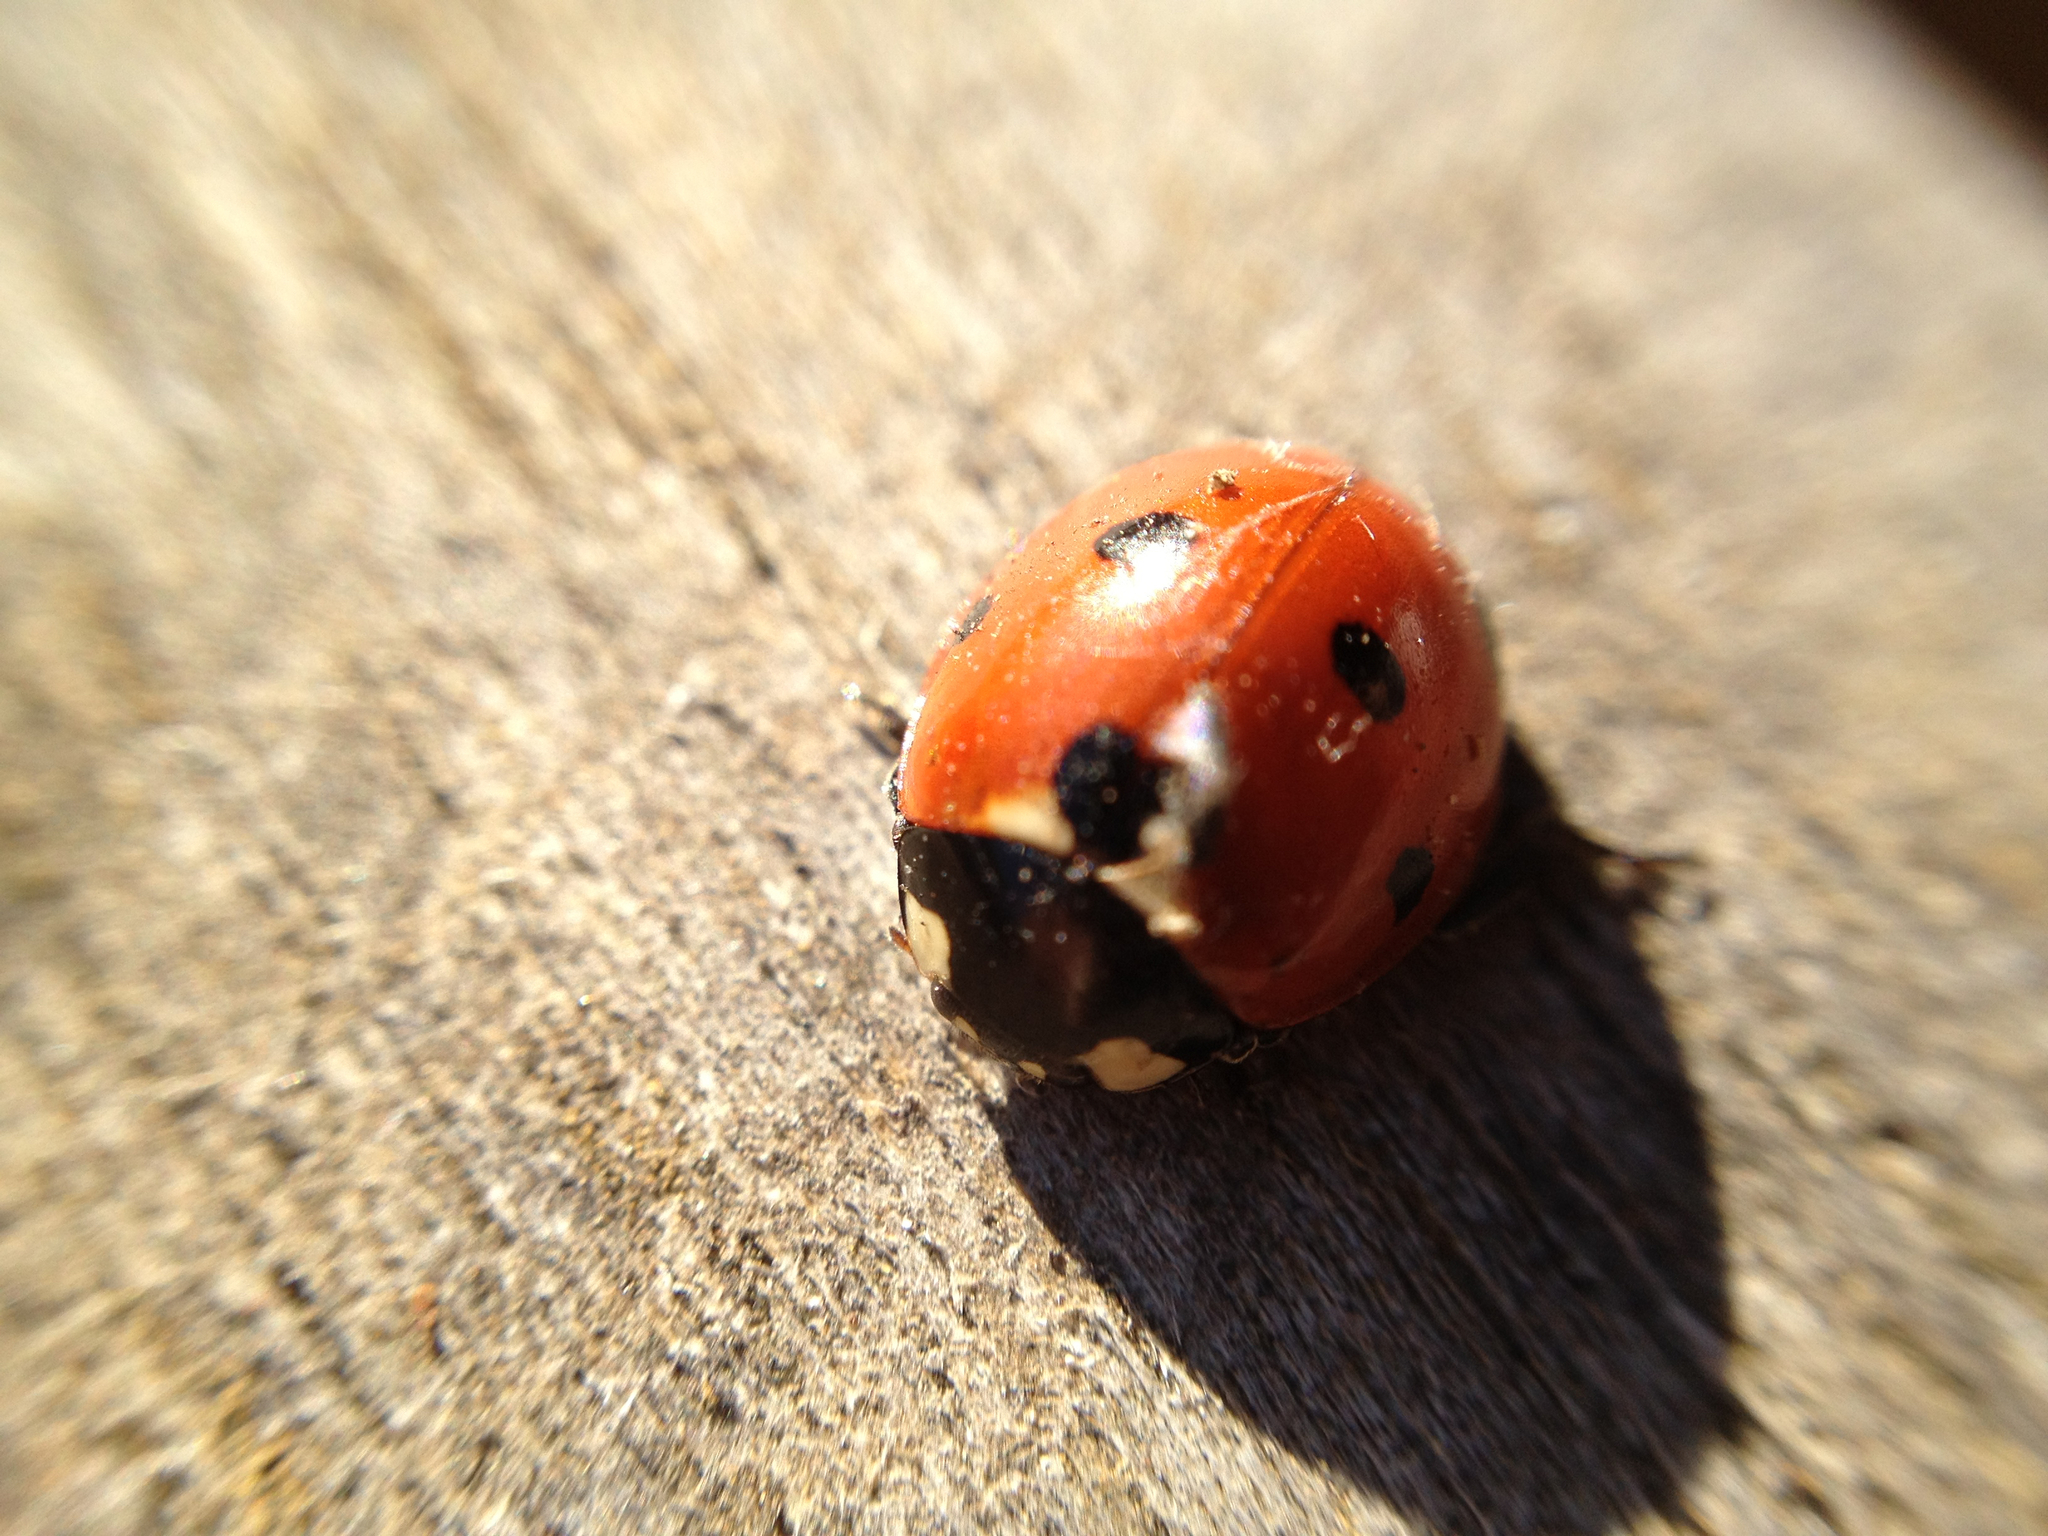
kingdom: Animalia
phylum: Arthropoda
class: Insecta
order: Coleoptera
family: Coccinellidae
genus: Coccinella
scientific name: Coccinella septempunctata
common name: Sevenspotted lady beetle
